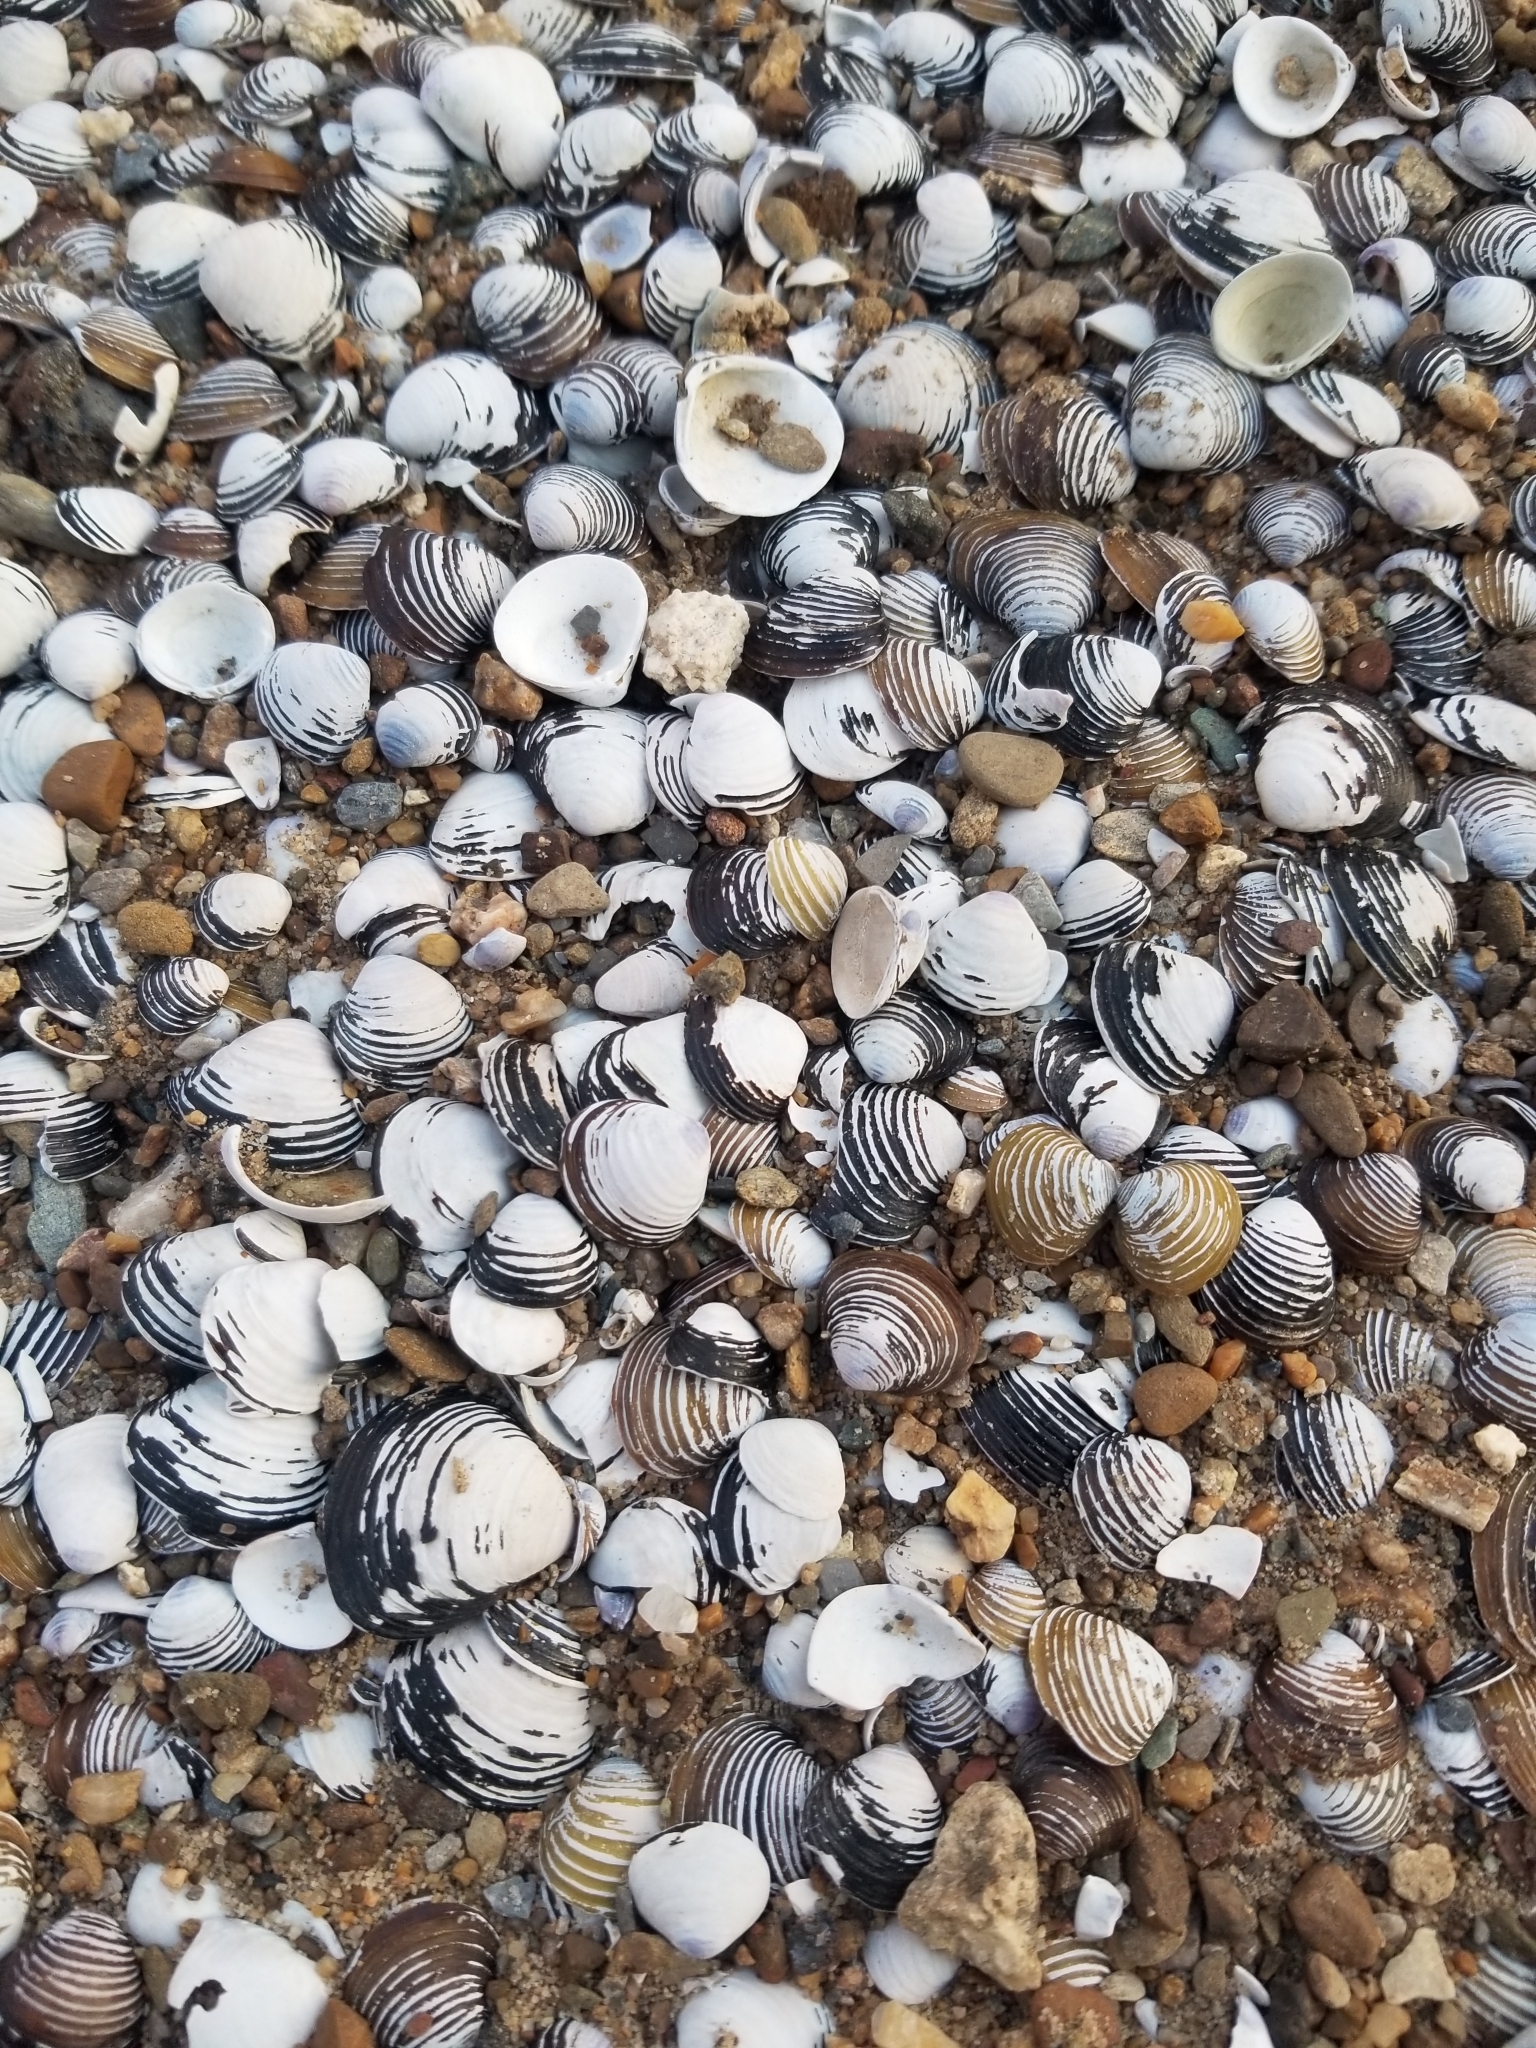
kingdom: Animalia
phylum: Mollusca
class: Bivalvia
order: Venerida
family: Cyrenidae
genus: Corbicula
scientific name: Corbicula fluminea
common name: Asian clam
